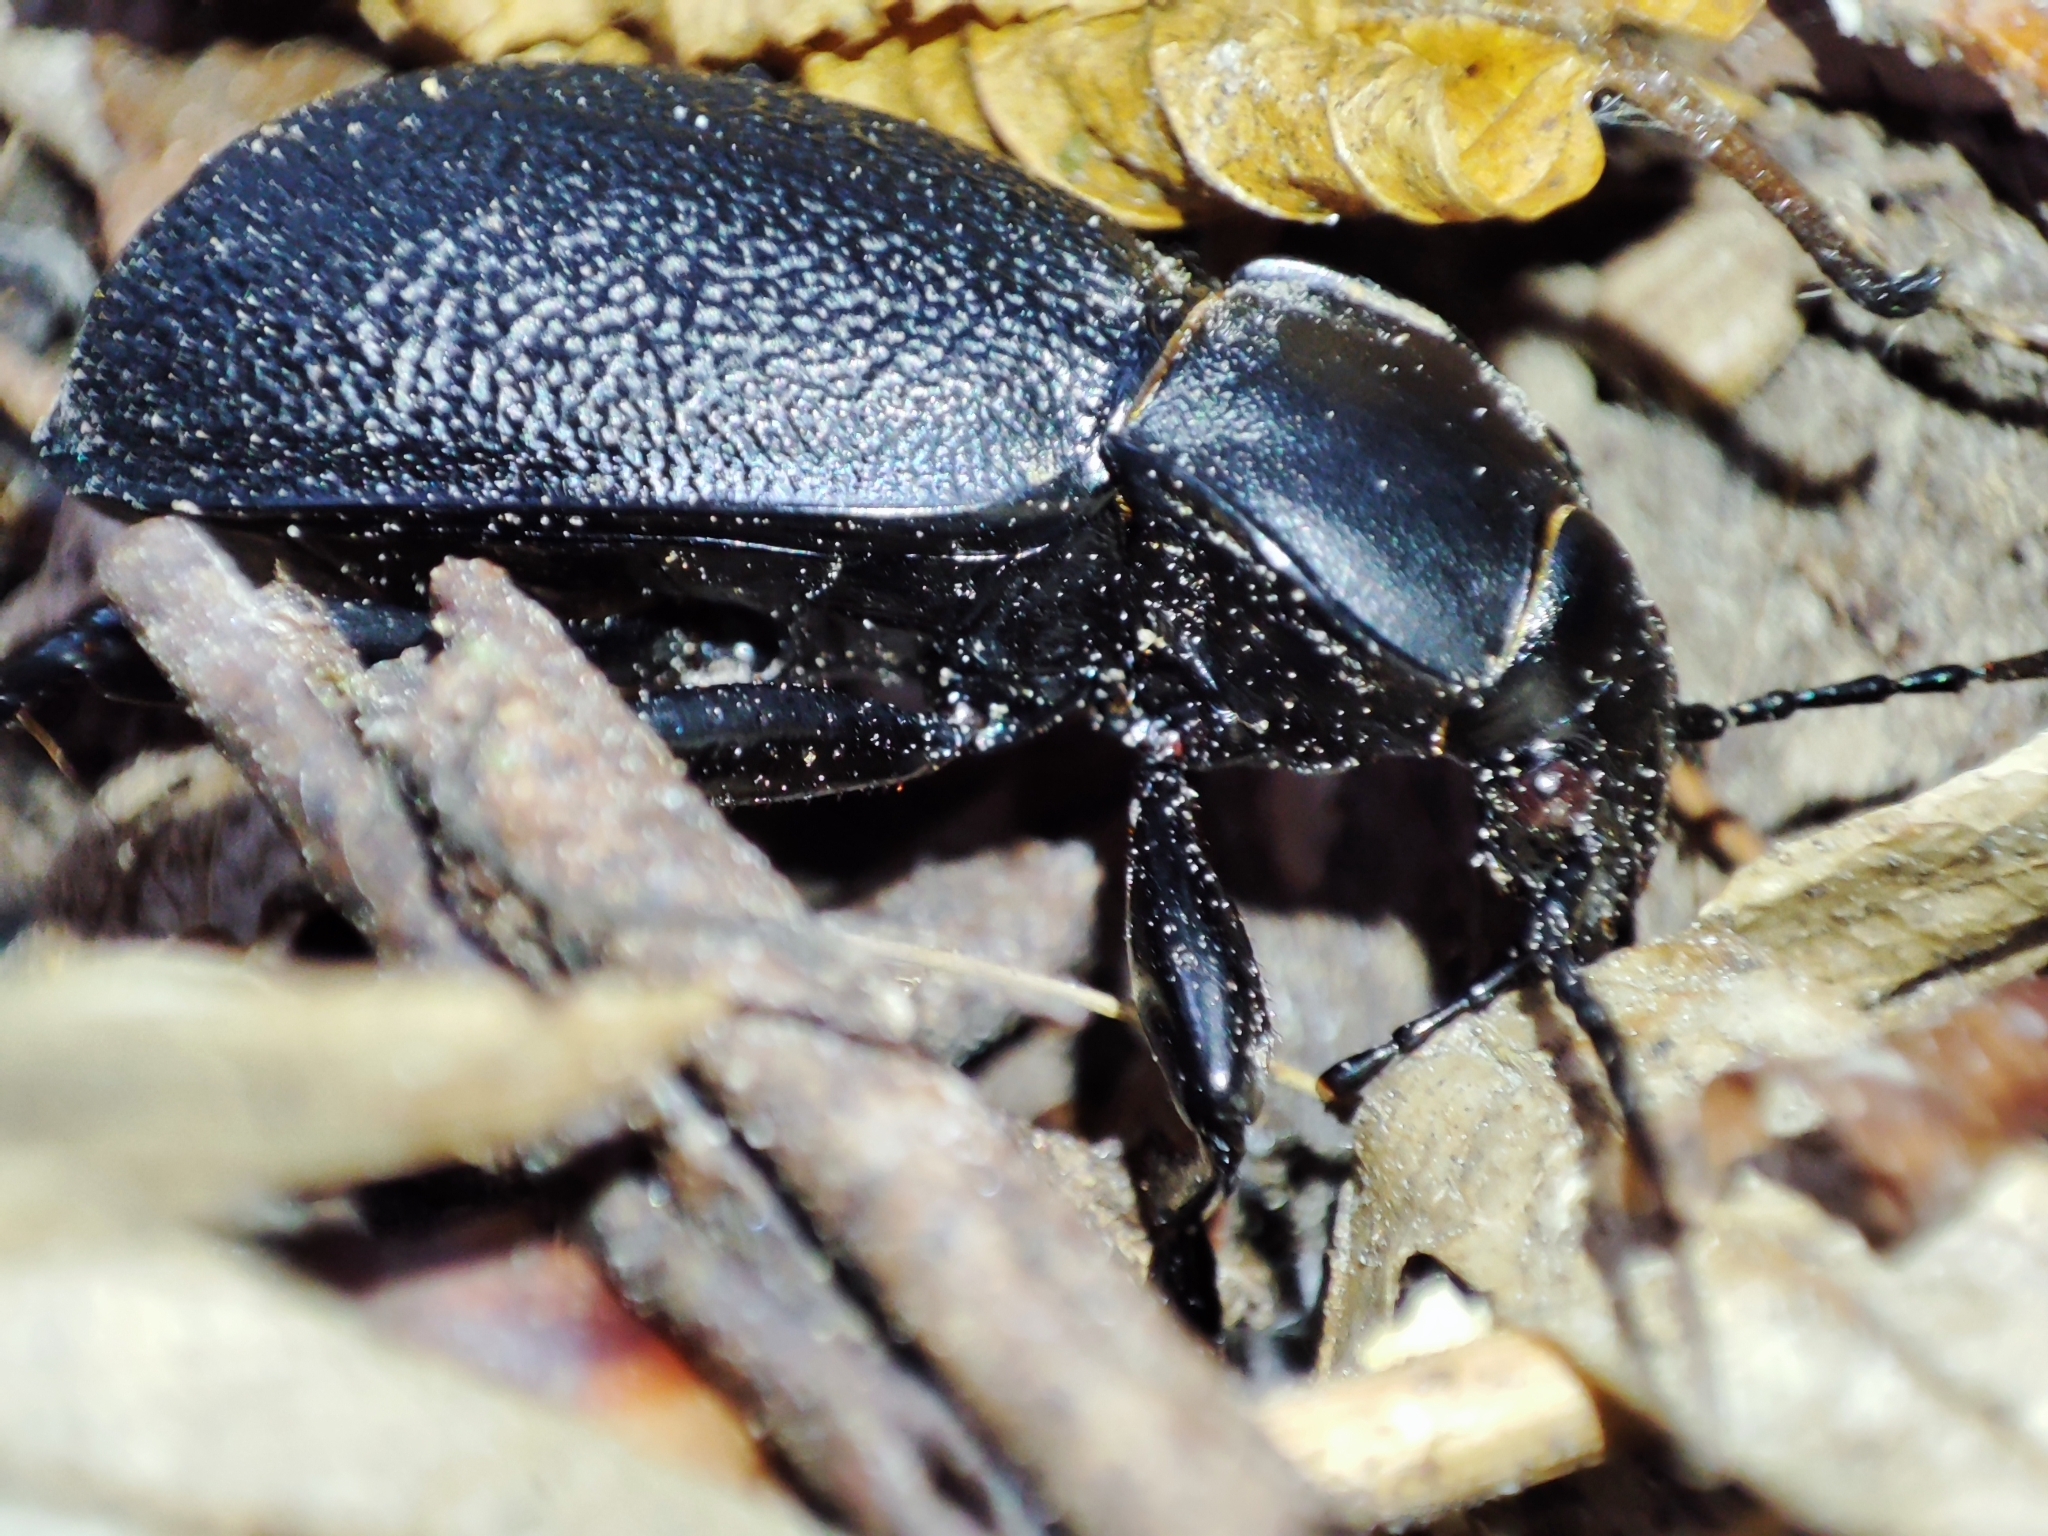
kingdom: Animalia
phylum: Arthropoda
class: Insecta
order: Coleoptera
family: Carabidae
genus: Carabus
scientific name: Carabus coriaceus
